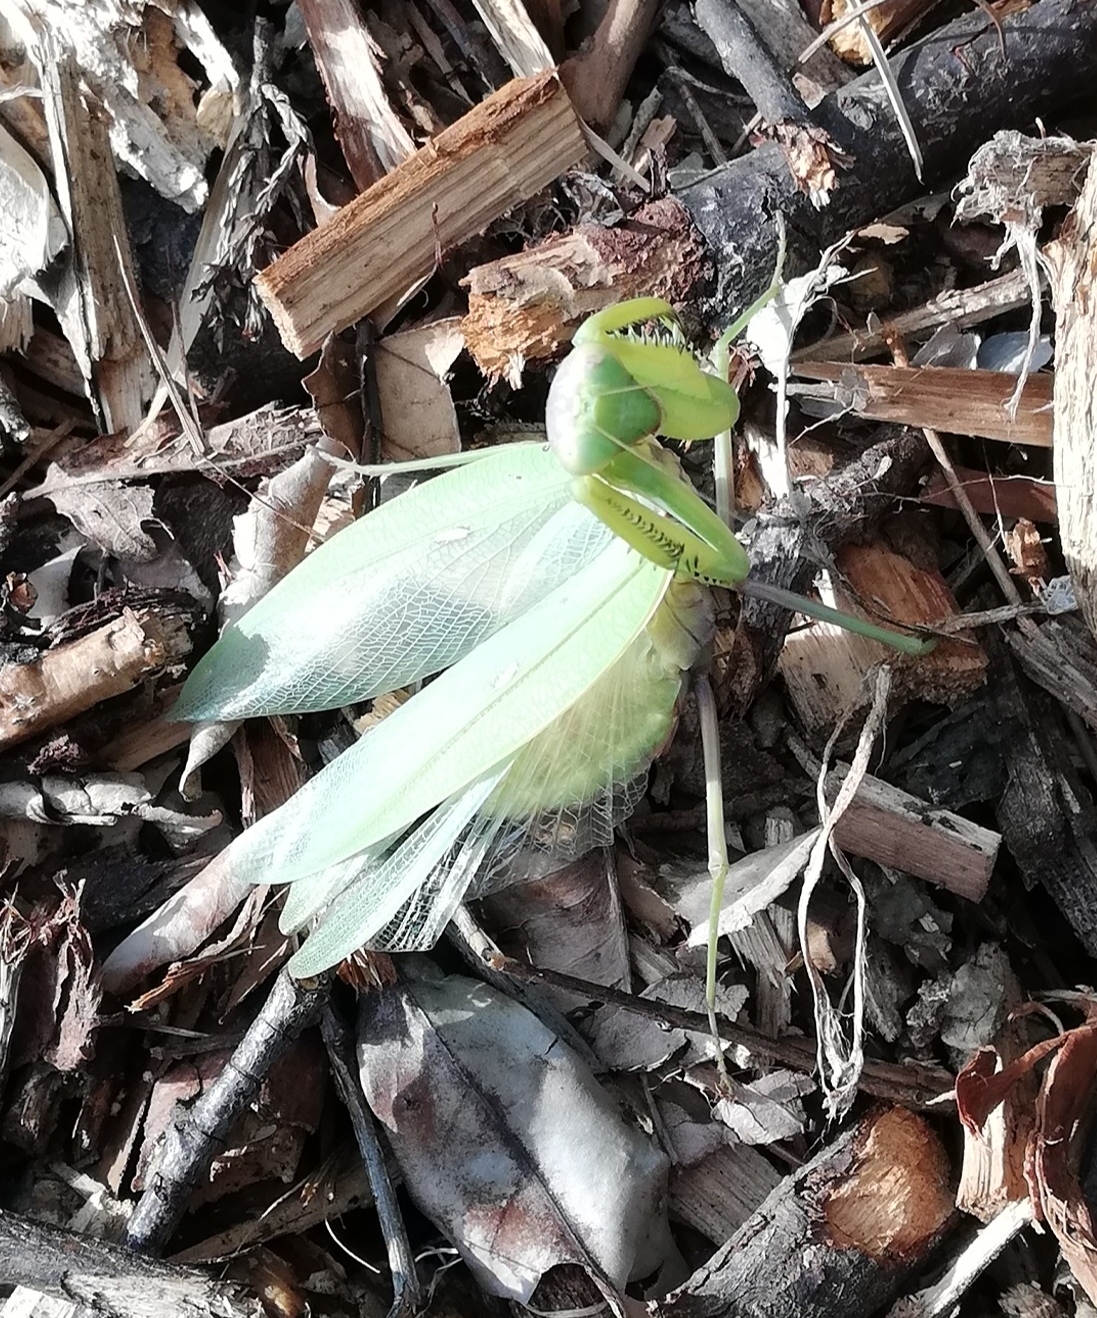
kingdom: Animalia
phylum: Arthropoda
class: Insecta
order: Mantodea
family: Mantidae
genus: Hierodula
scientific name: Hierodula transcaucasica
